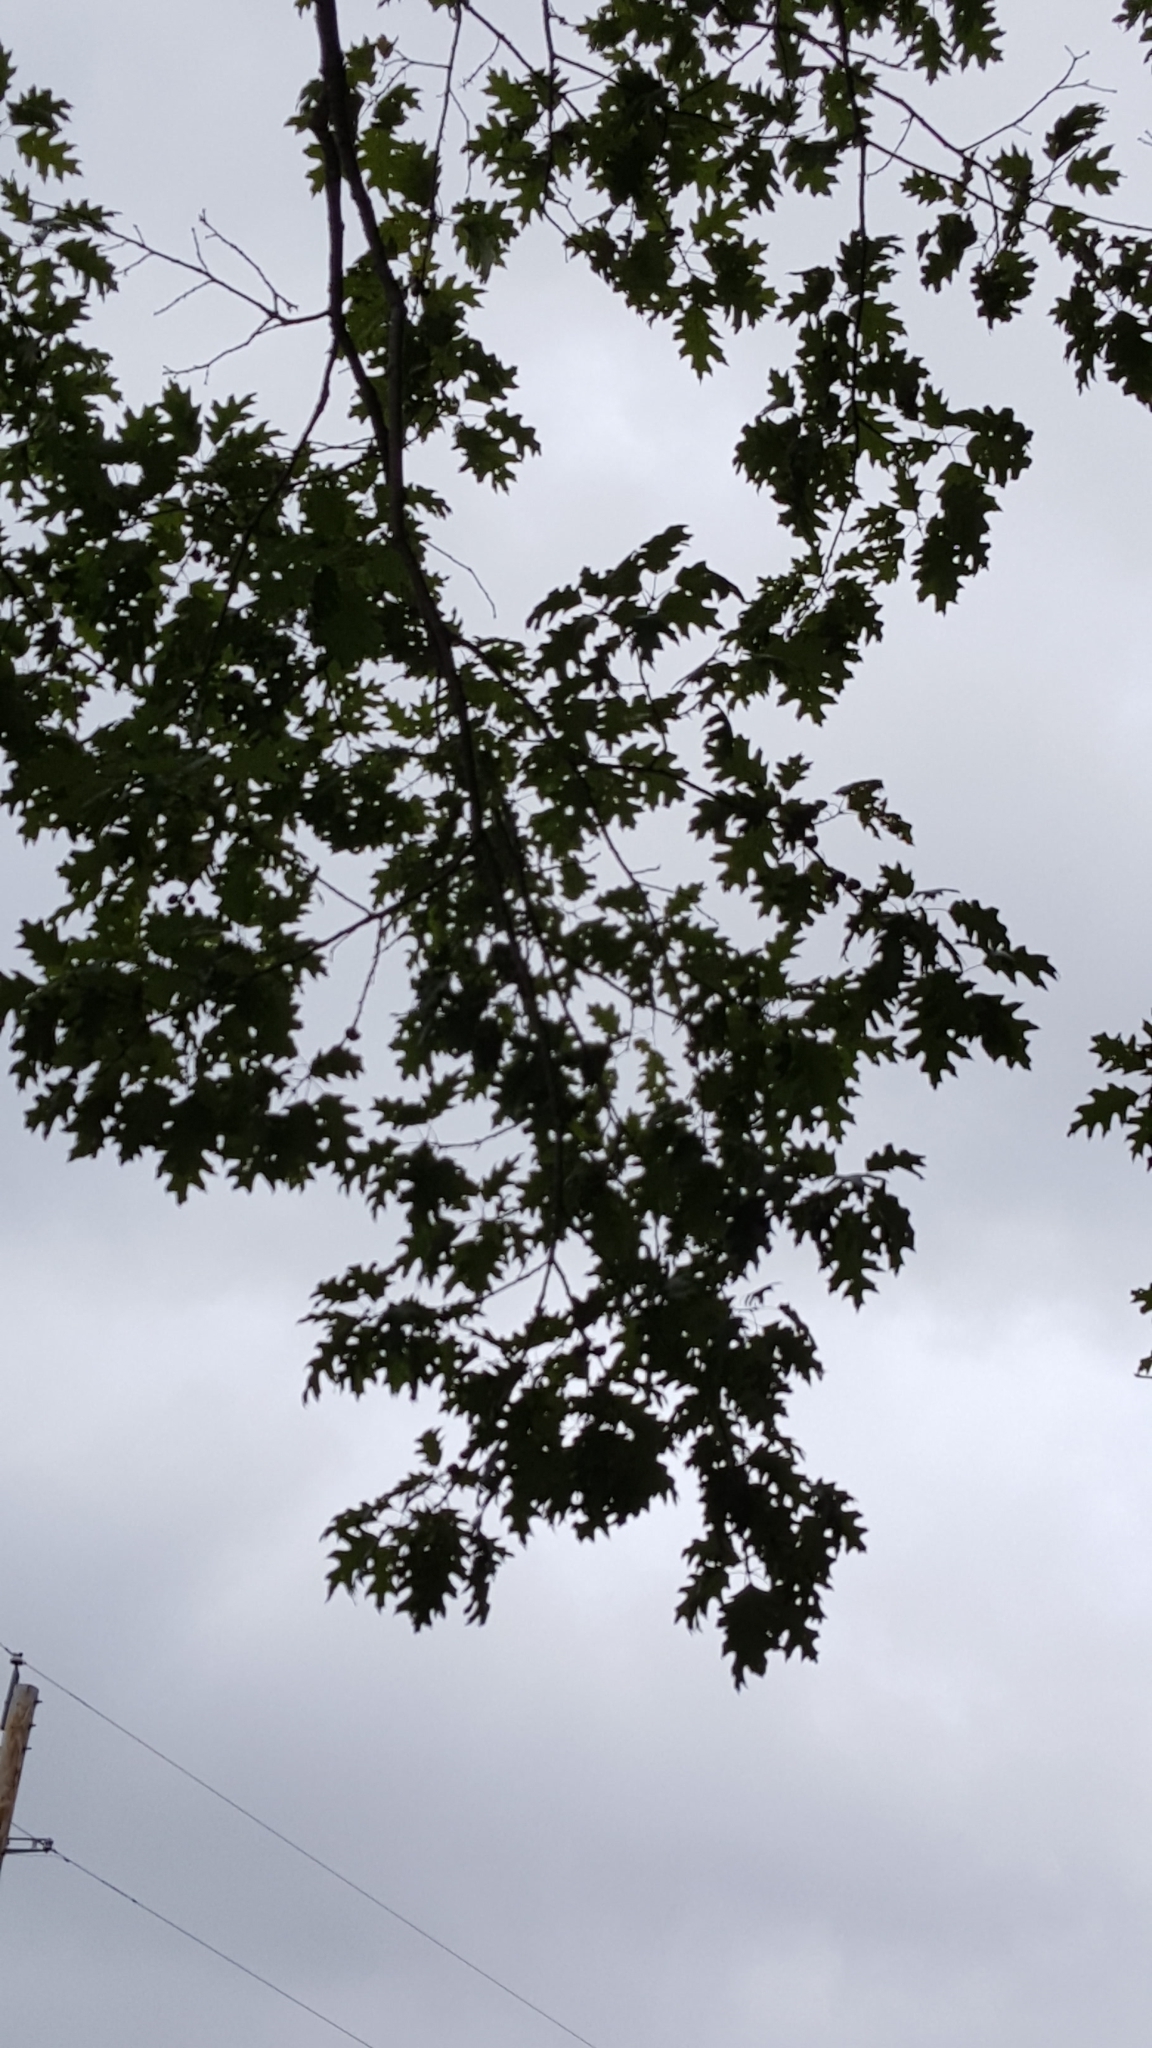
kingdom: Plantae
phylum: Tracheophyta
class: Magnoliopsida
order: Fagales
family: Fagaceae
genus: Quercus
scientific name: Quercus rubra
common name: Red oak
